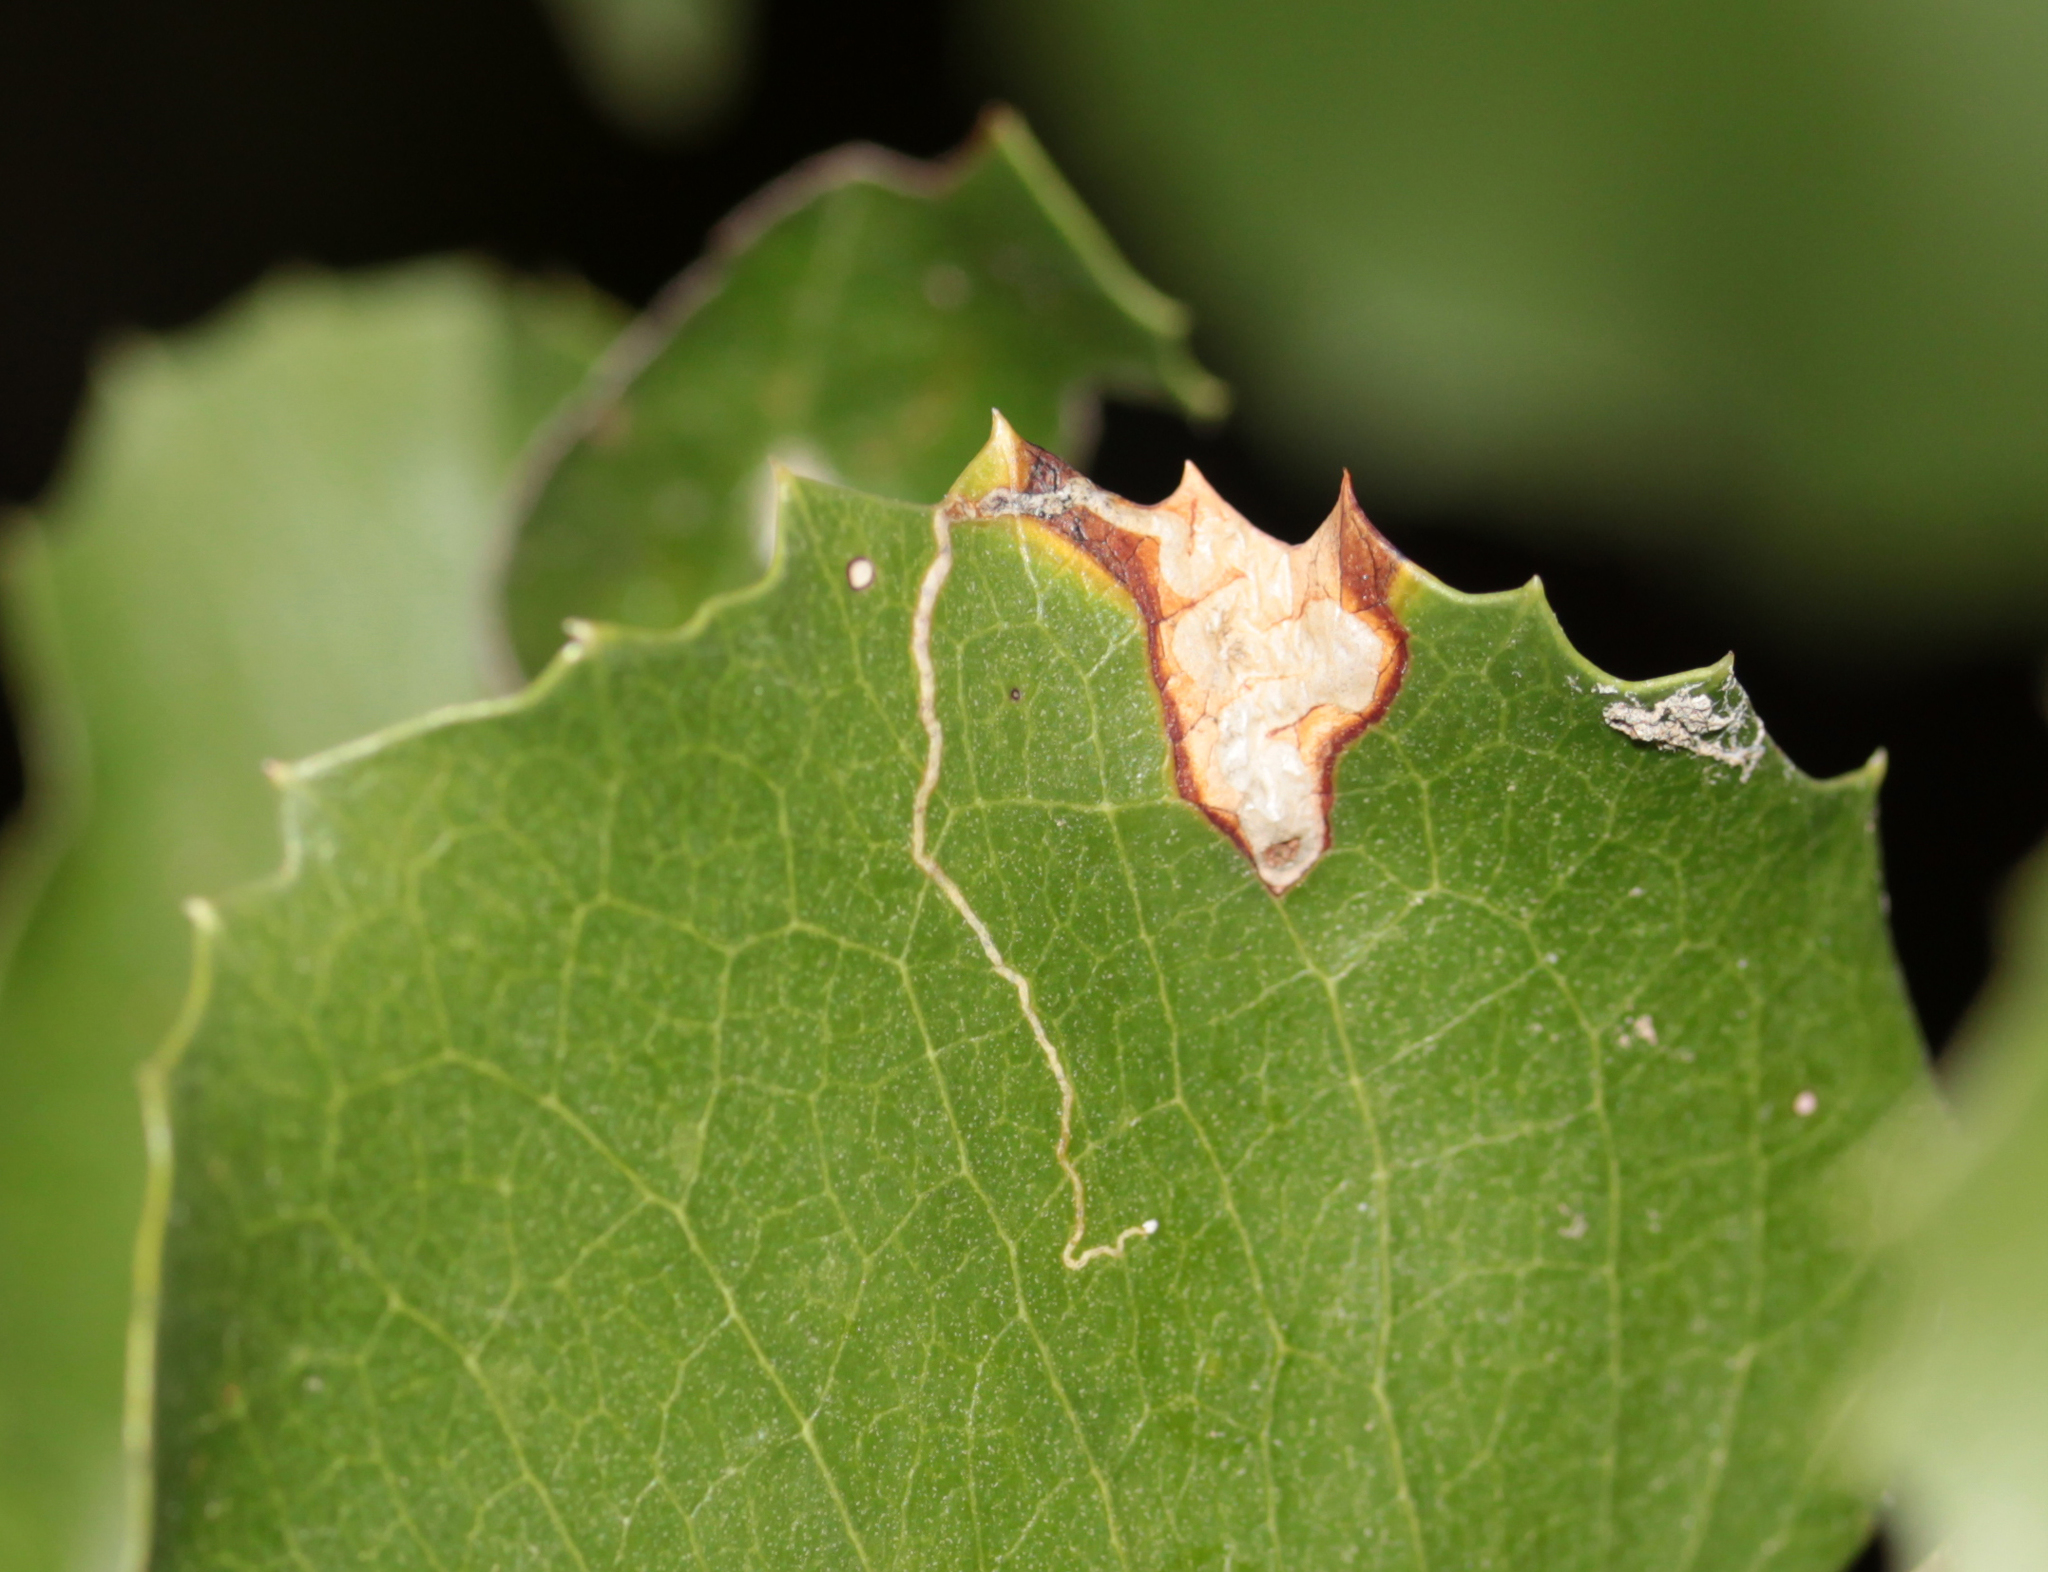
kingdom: Animalia
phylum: Arthropoda
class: Insecta
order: Lepidoptera
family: Nepticulidae
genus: Stigmella
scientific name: Stigmella braunella
